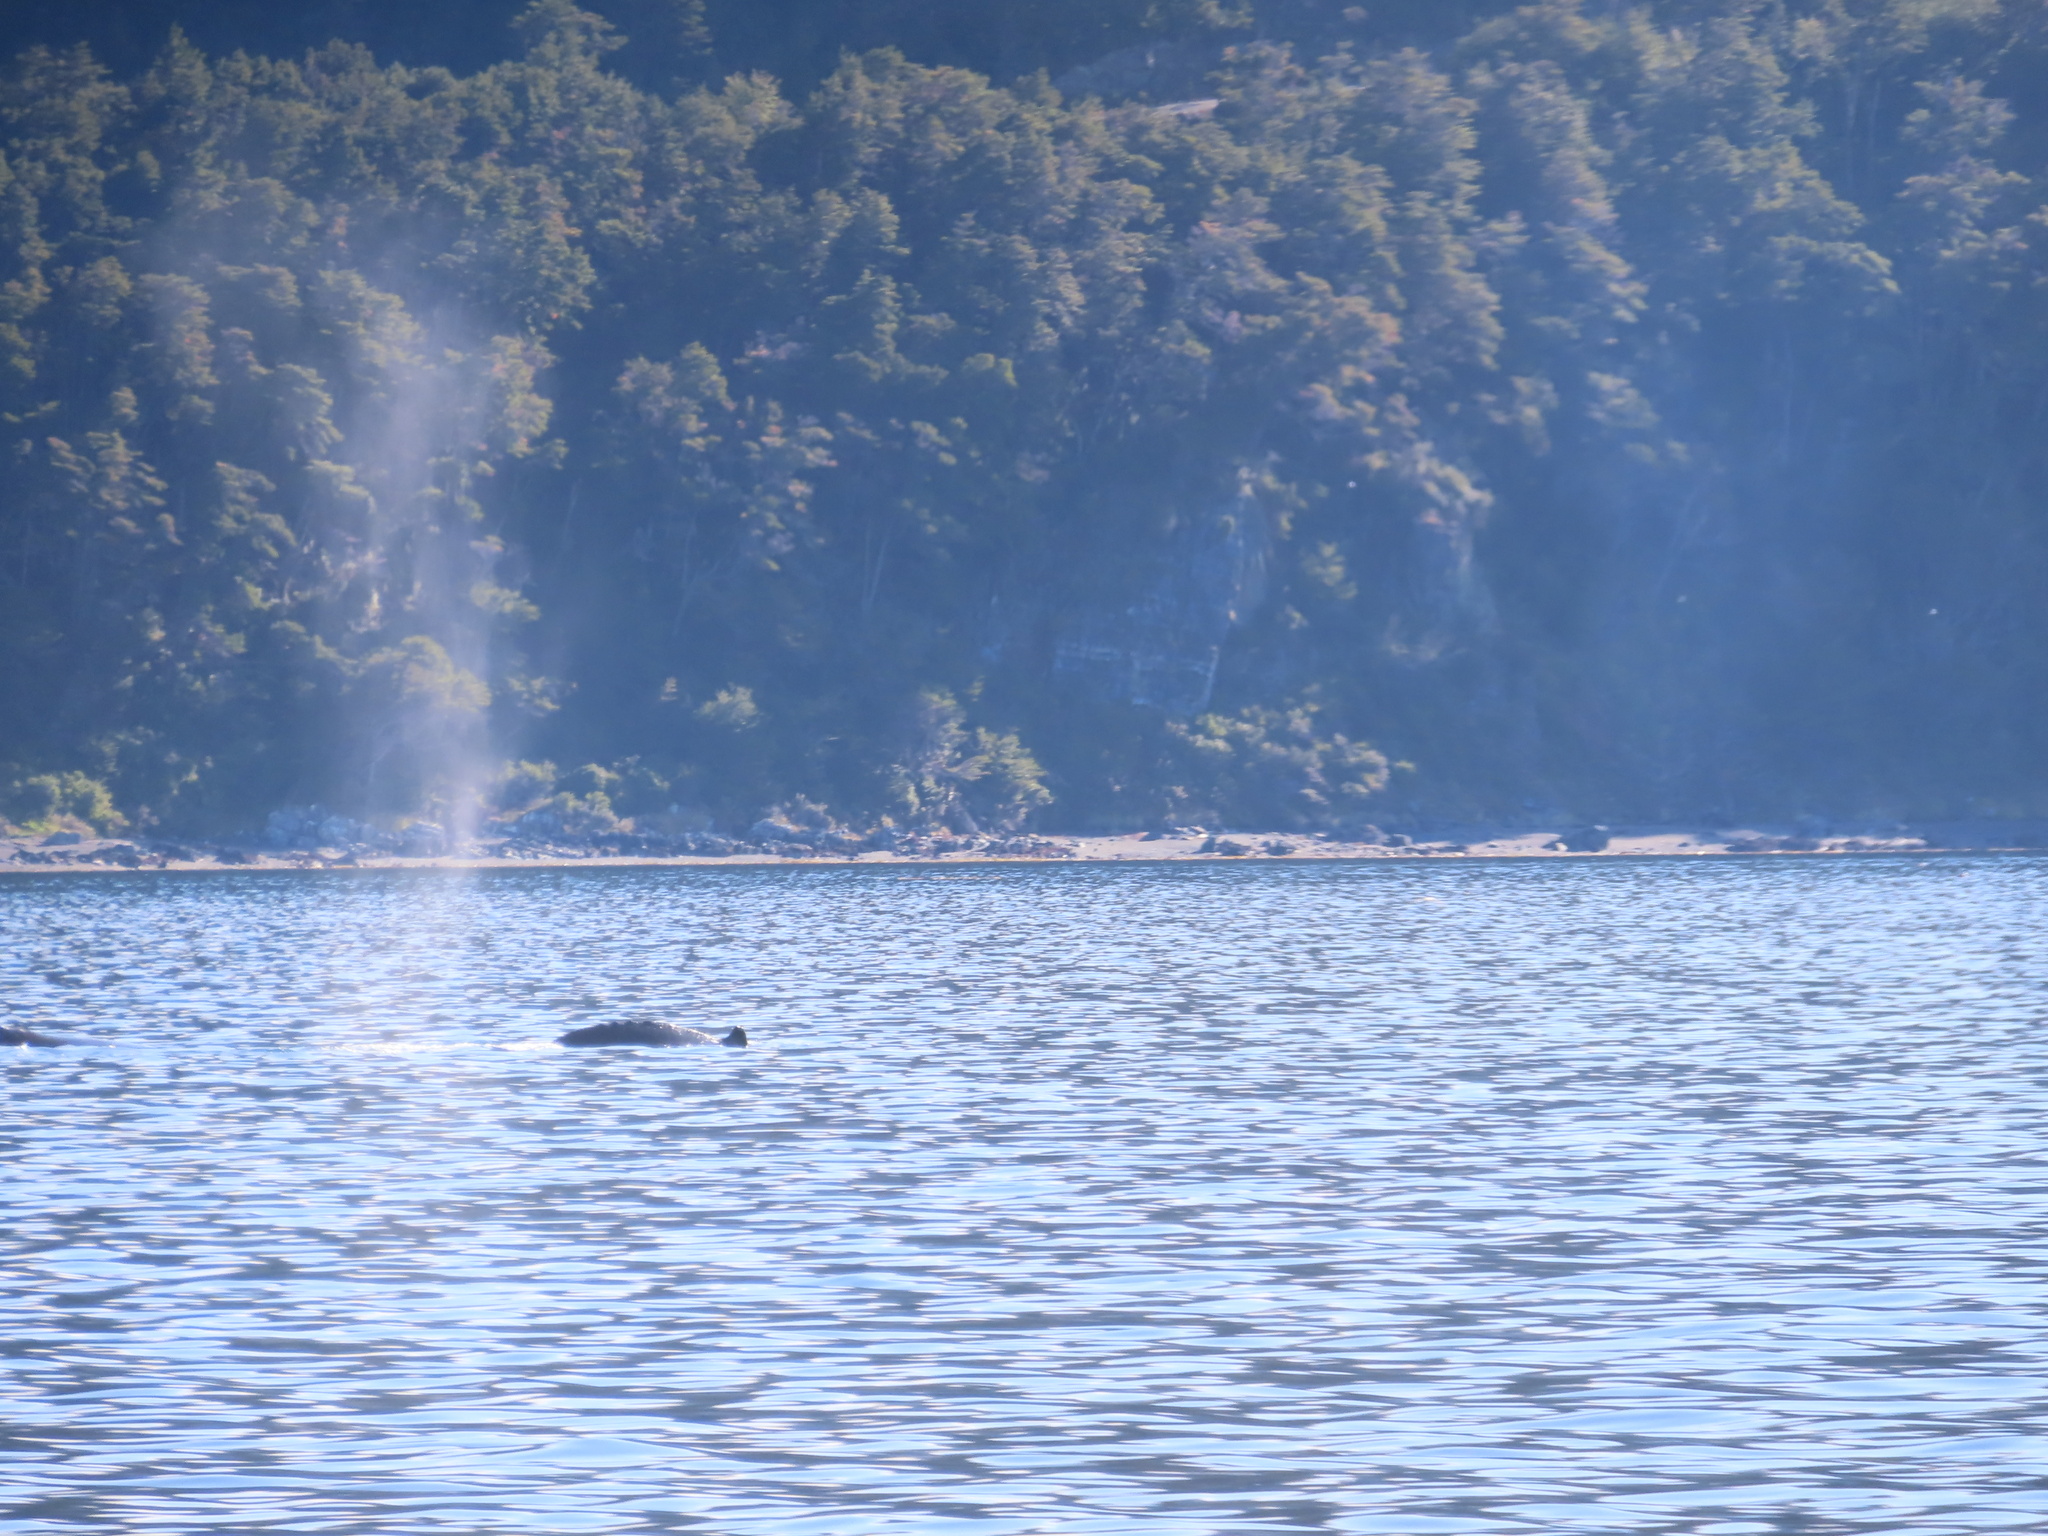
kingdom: Animalia
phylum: Chordata
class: Mammalia
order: Cetacea
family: Balaenopteridae
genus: Megaptera
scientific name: Megaptera novaeangliae
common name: Humpback whale
